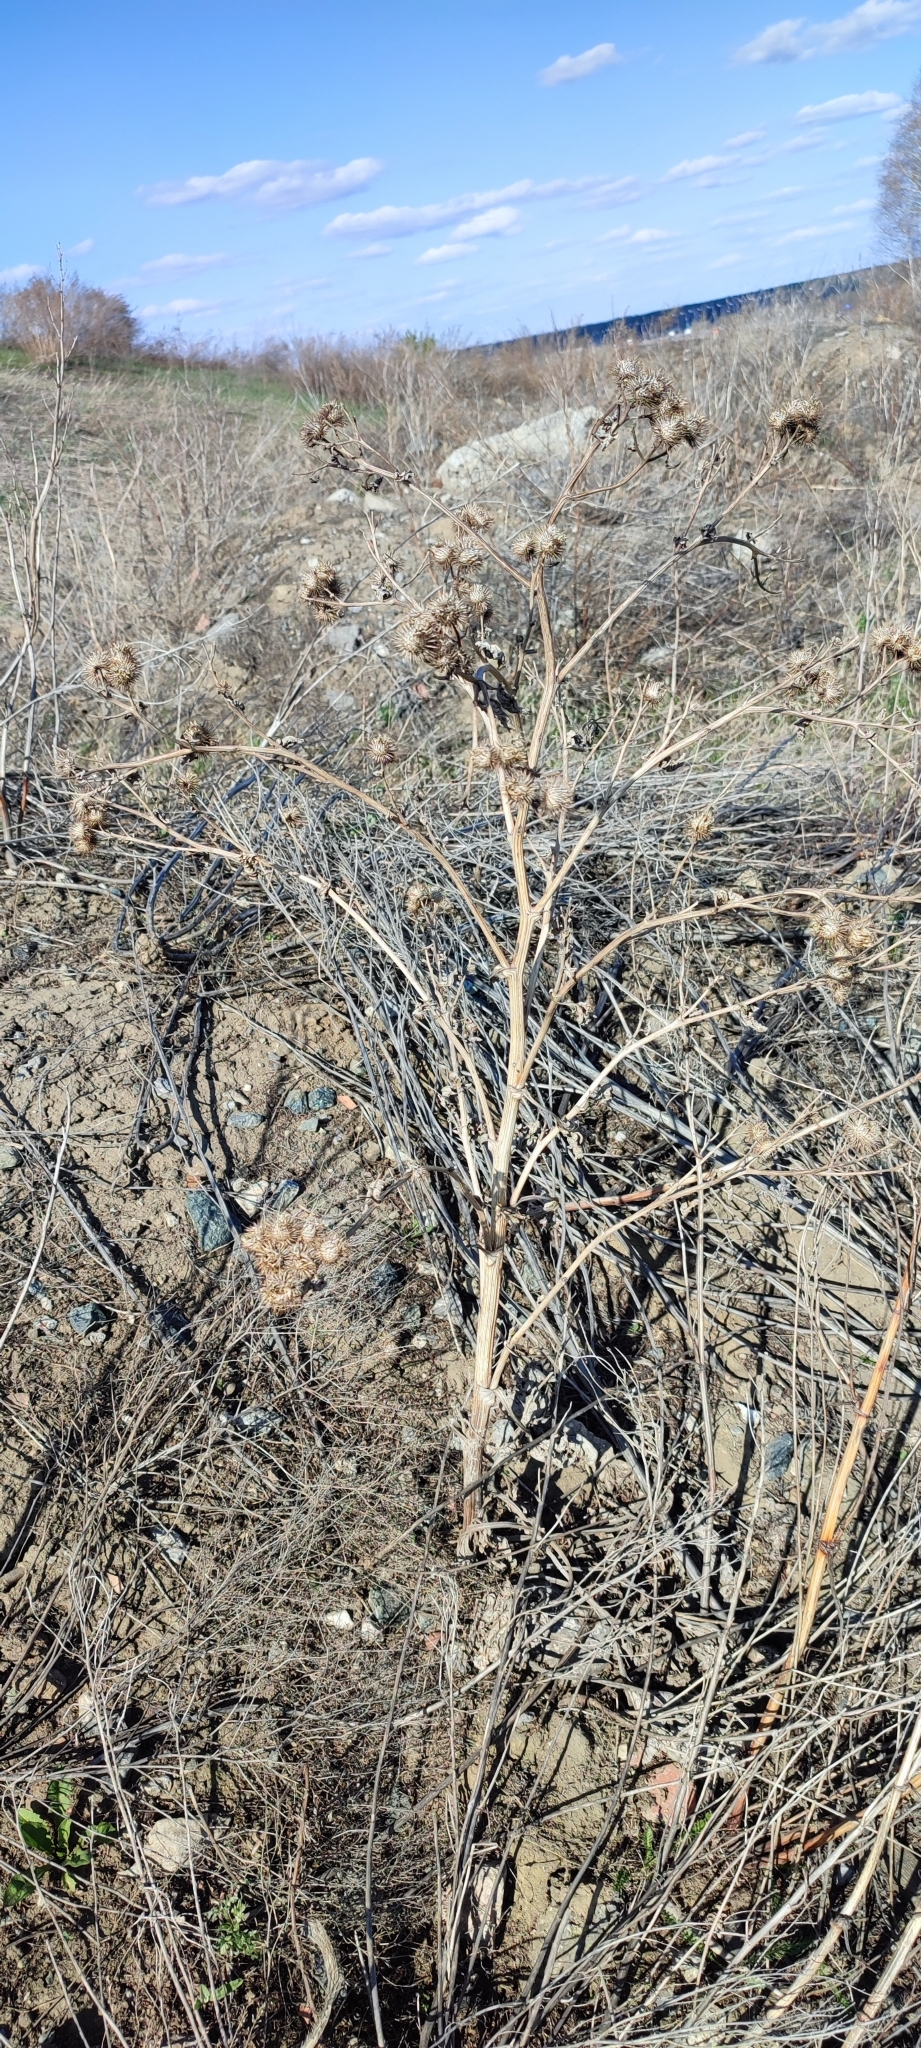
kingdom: Plantae
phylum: Tracheophyta
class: Magnoliopsida
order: Asterales
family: Asteraceae
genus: Arctium
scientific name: Arctium tomentosum
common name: Woolly burdock
